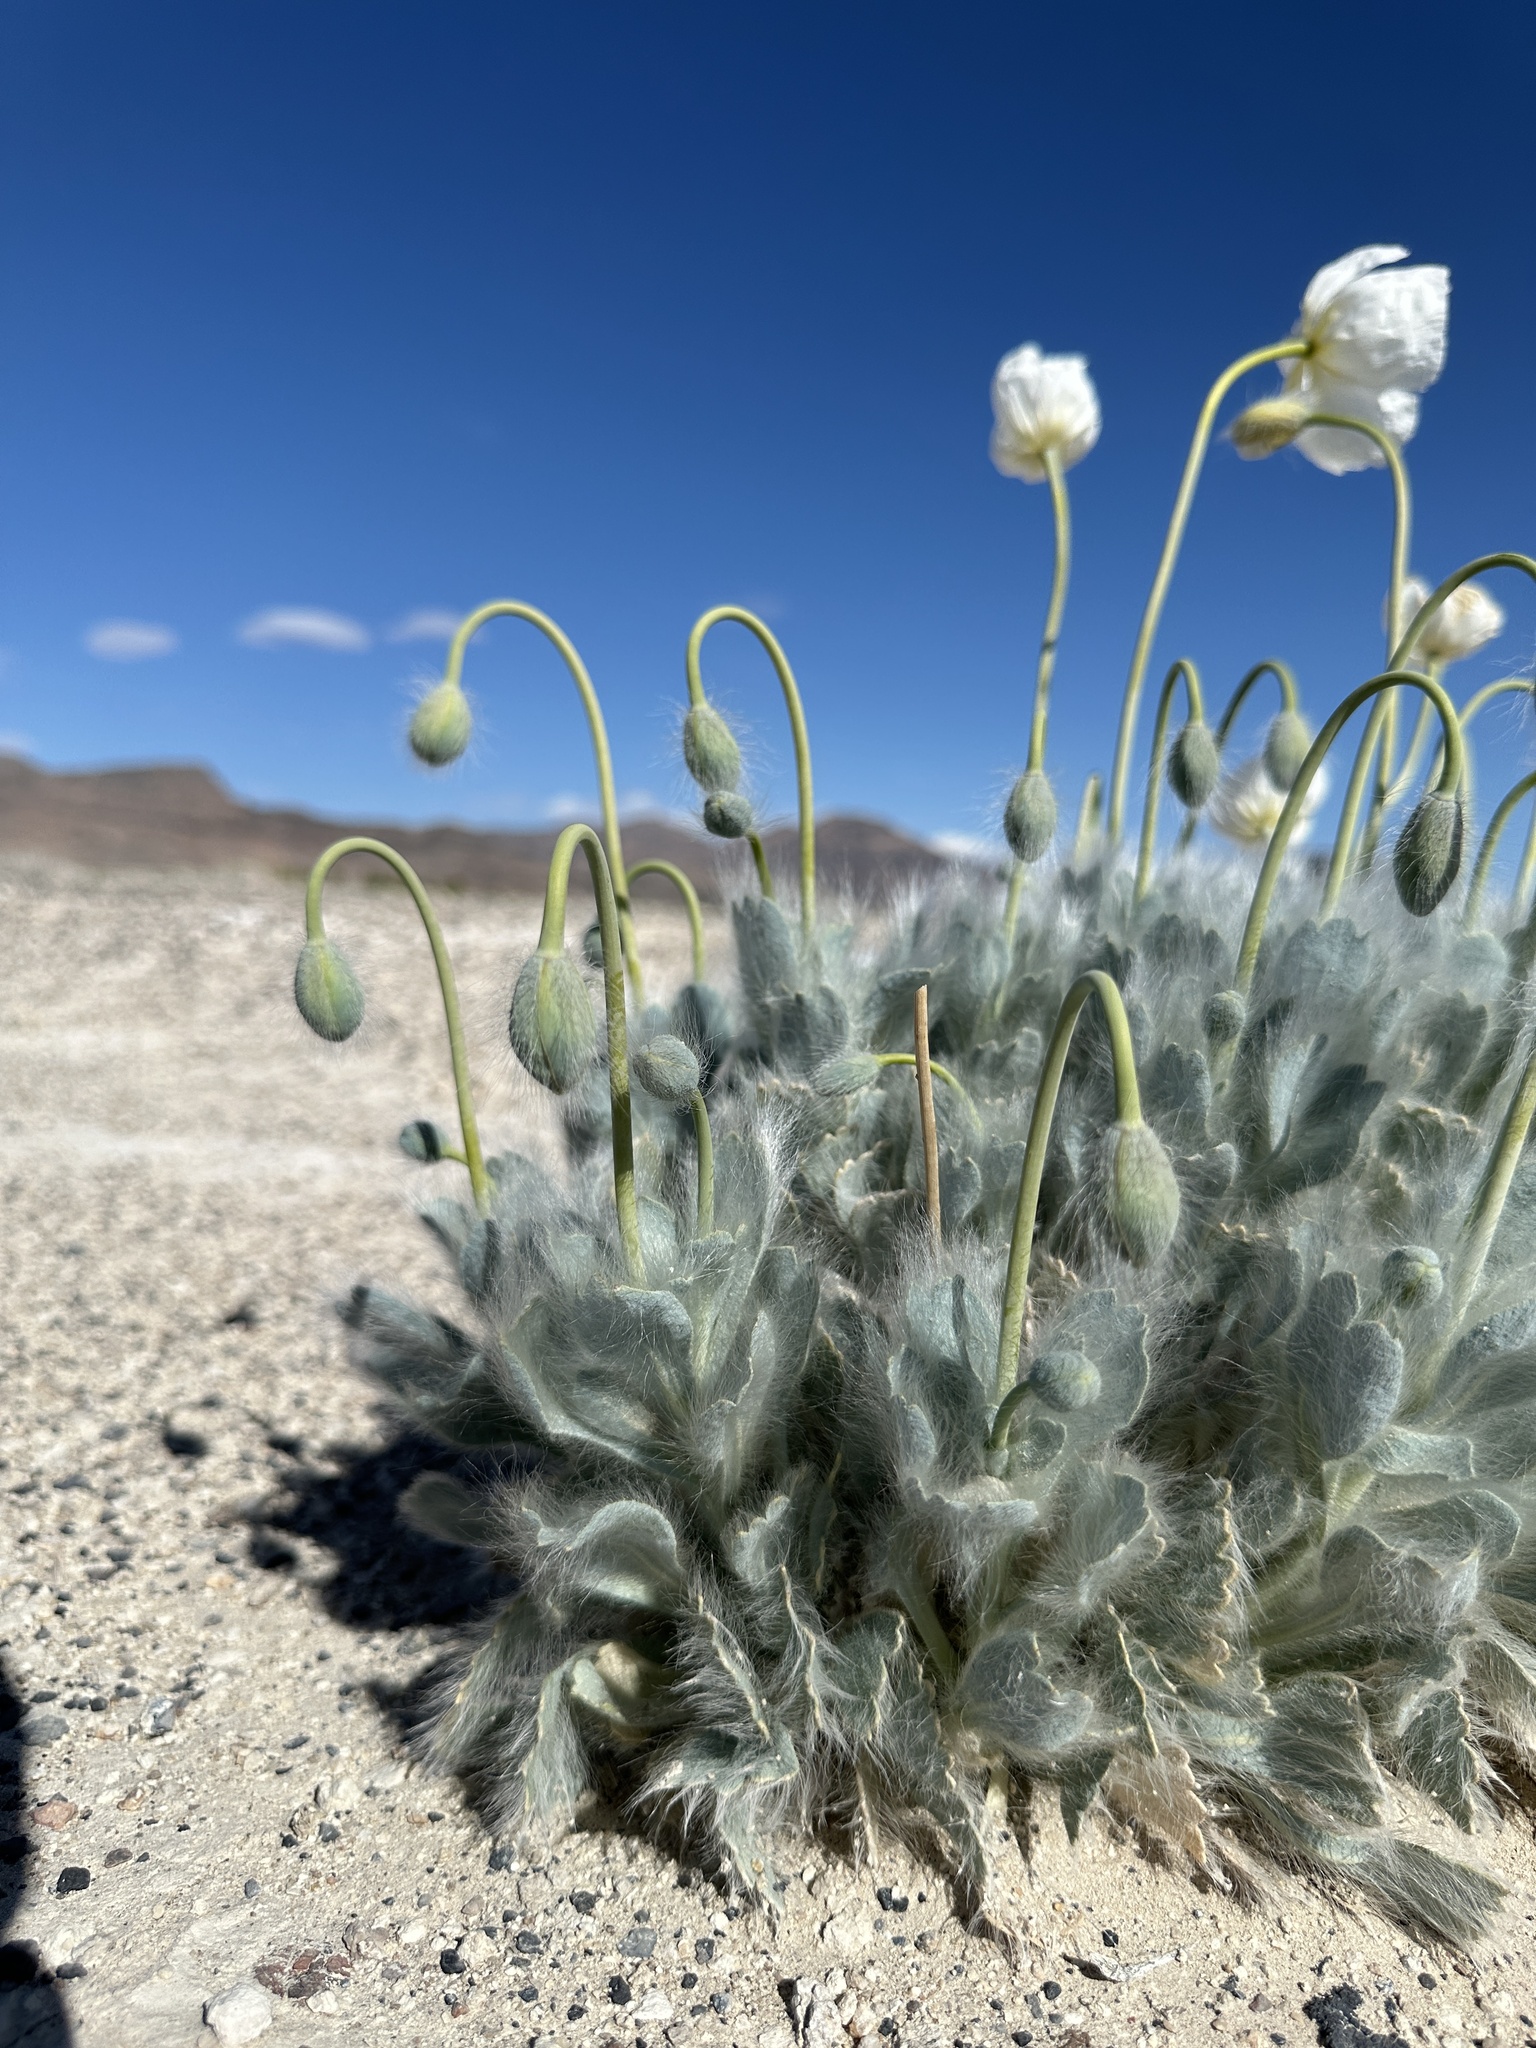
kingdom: Plantae
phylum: Tracheophyta
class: Magnoliopsida
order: Ranunculales
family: Papaveraceae
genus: Arctomecon
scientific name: Arctomecon merriamii
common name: White bear-poppy
